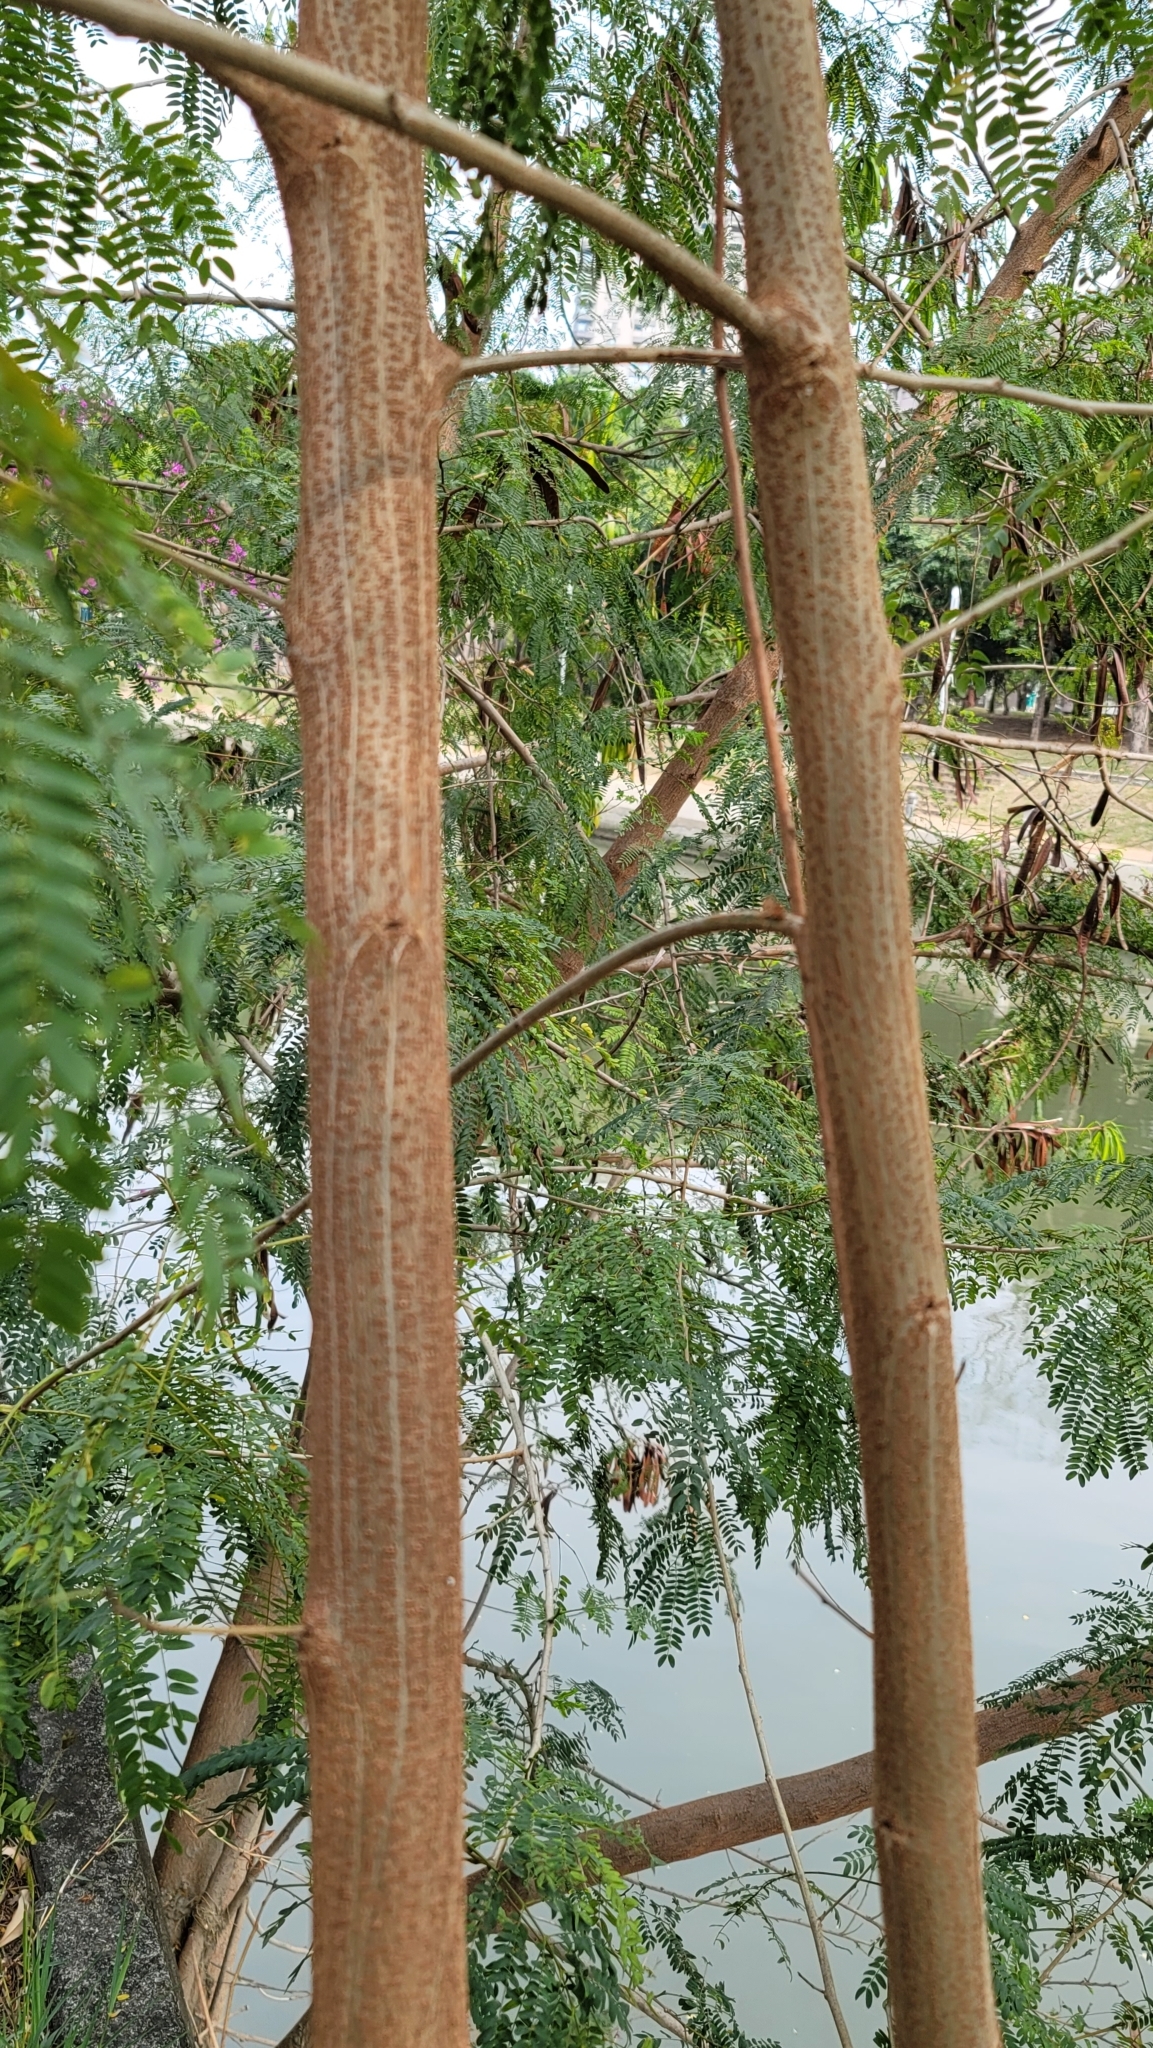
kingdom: Plantae
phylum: Tracheophyta
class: Magnoliopsida
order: Fabales
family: Fabaceae
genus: Leucaena
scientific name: Leucaena leucocephala
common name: White leadtree
